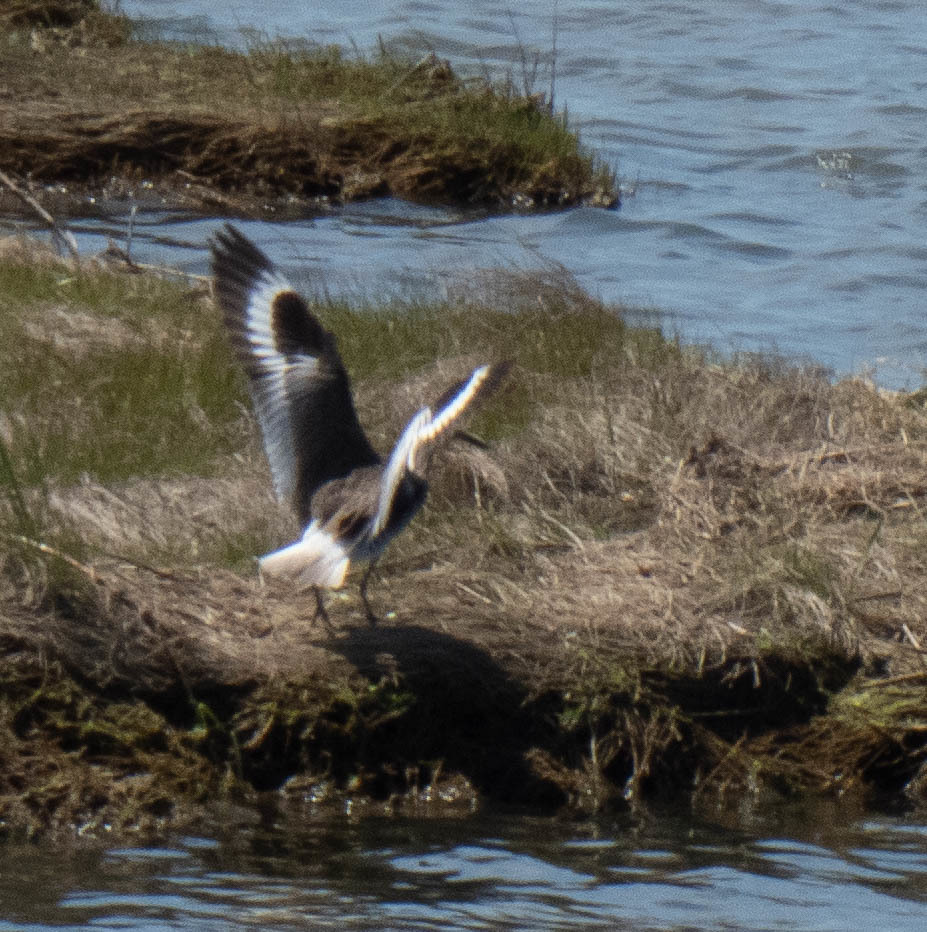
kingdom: Animalia
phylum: Chordata
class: Aves
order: Charadriiformes
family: Scolopacidae
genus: Tringa
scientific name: Tringa semipalmata
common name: Willet
